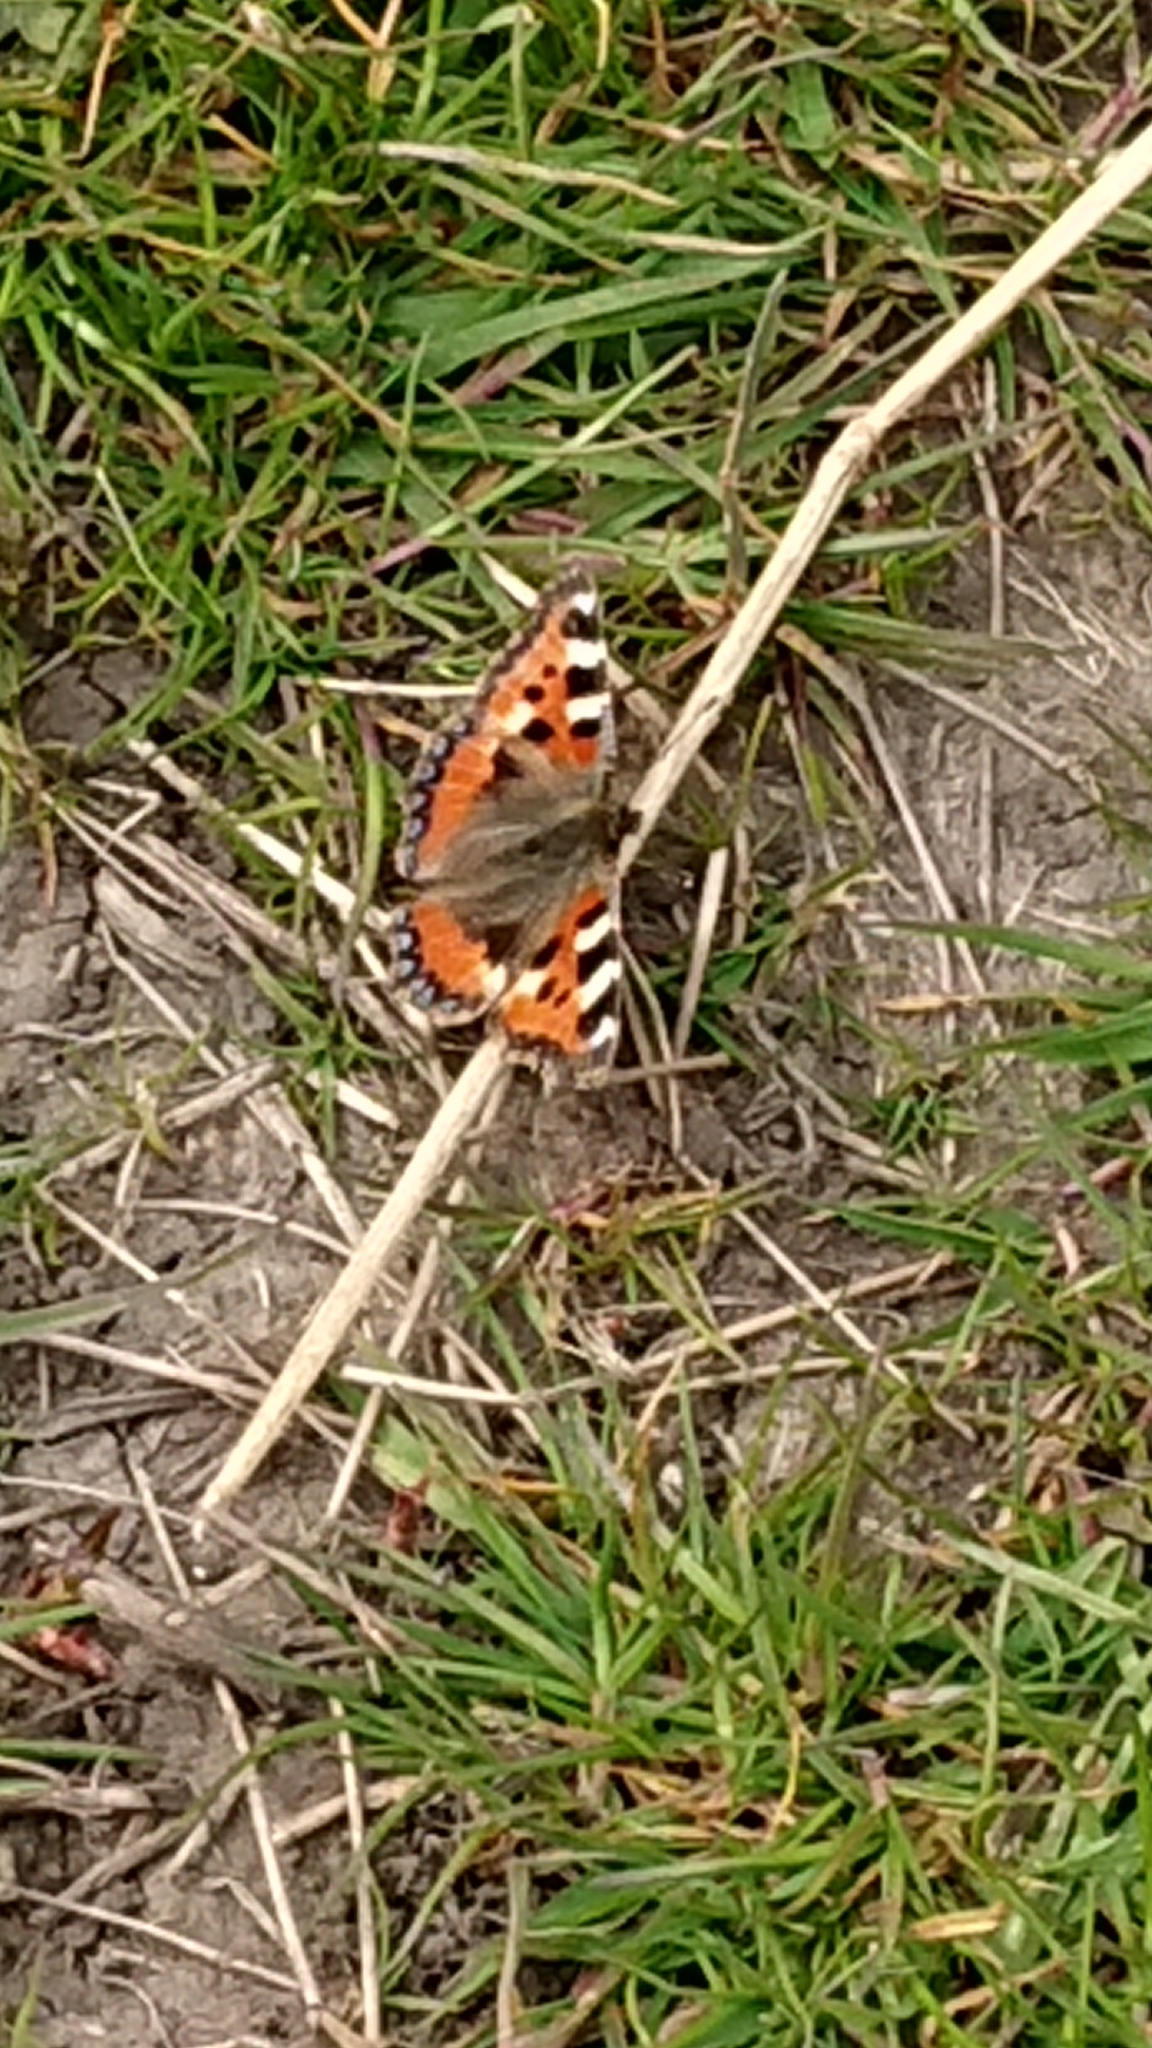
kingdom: Animalia
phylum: Arthropoda
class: Insecta
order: Lepidoptera
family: Nymphalidae
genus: Aglais
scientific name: Aglais urticae
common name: Small tortoiseshell
